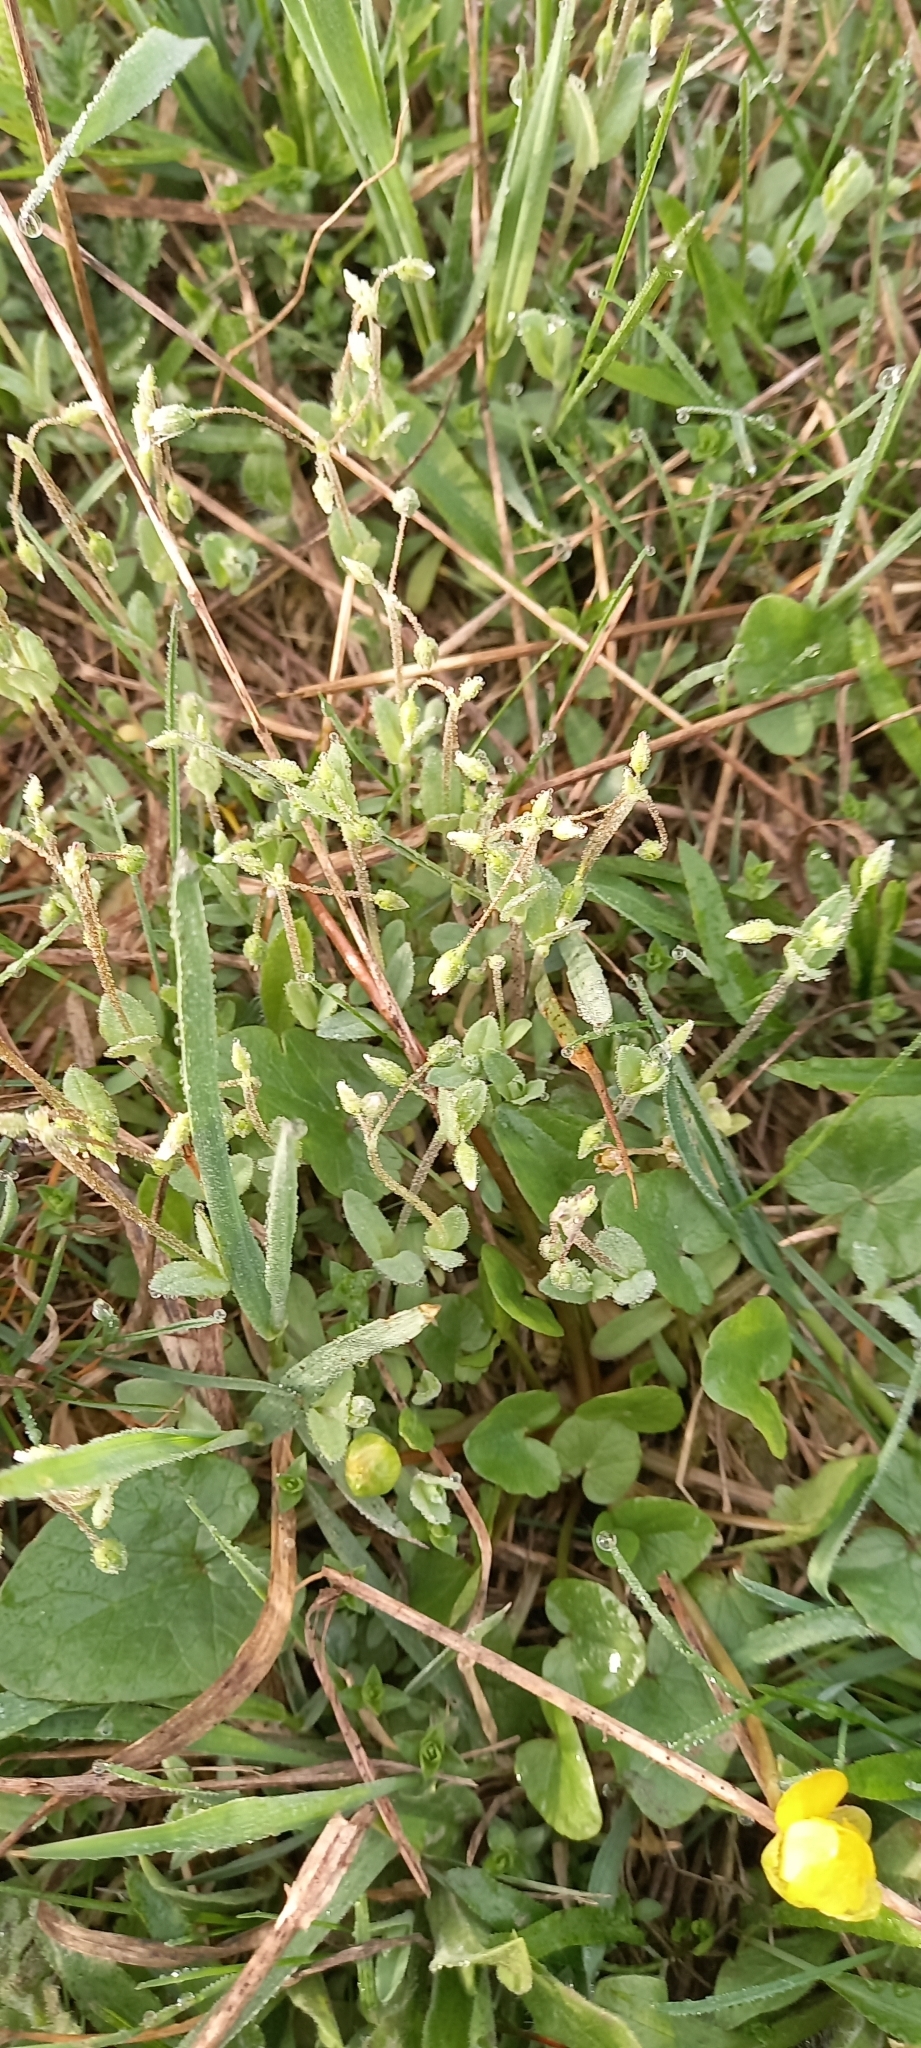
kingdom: Plantae
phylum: Tracheophyta
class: Magnoliopsida
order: Caryophyllales
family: Caryophyllaceae
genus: Holosteum
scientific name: Holosteum umbellatum
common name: Jagged chickweed
